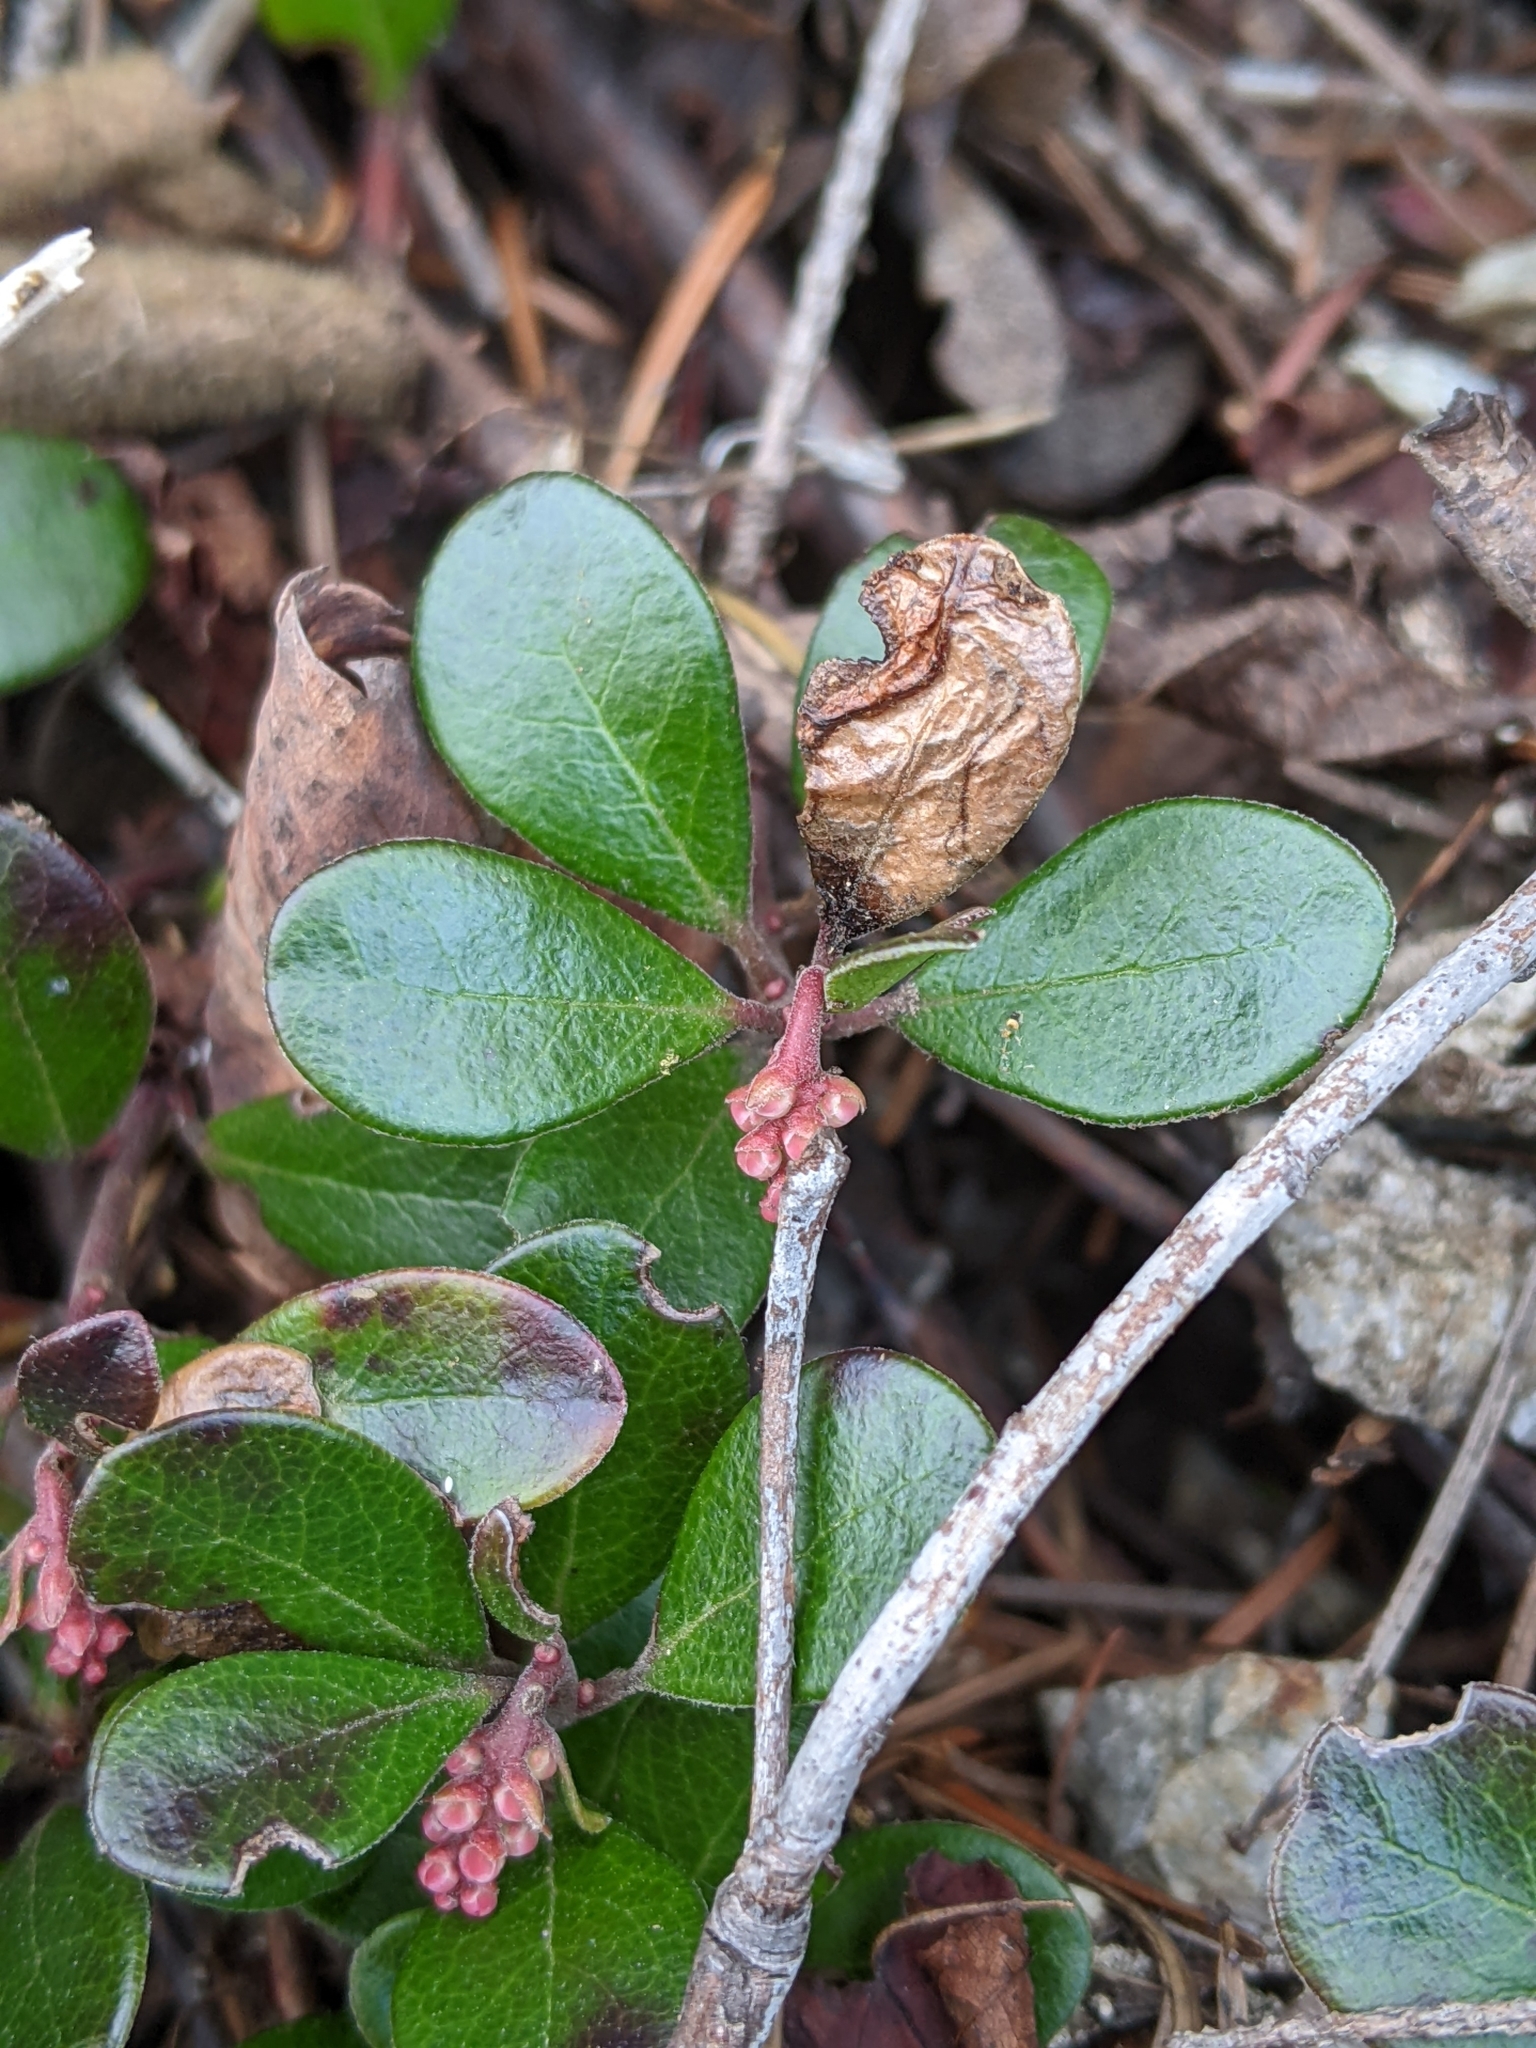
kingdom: Plantae
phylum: Tracheophyta
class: Magnoliopsida
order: Ericales
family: Ericaceae
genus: Arctostaphylos
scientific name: Arctostaphylos uva-ursi
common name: Bearberry
